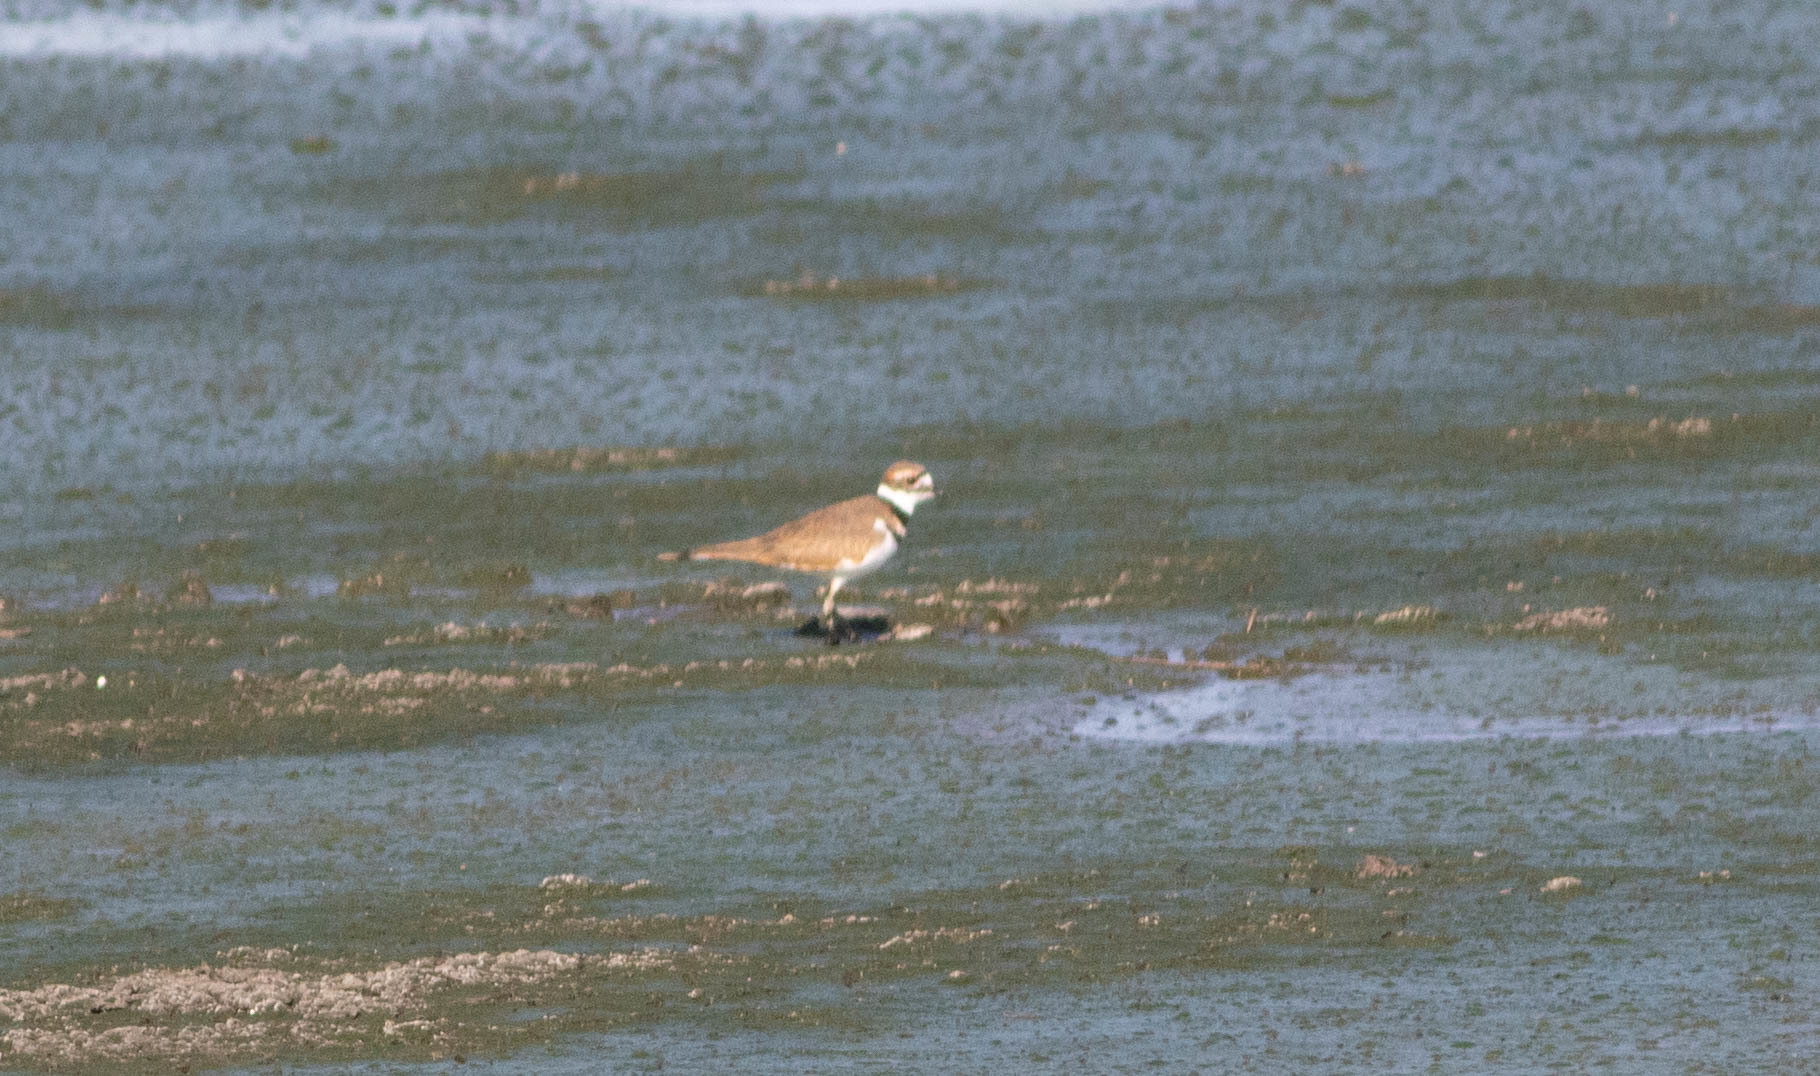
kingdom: Animalia
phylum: Chordata
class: Aves
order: Charadriiformes
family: Charadriidae
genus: Charadrius
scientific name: Charadrius vociferus
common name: Killdeer
